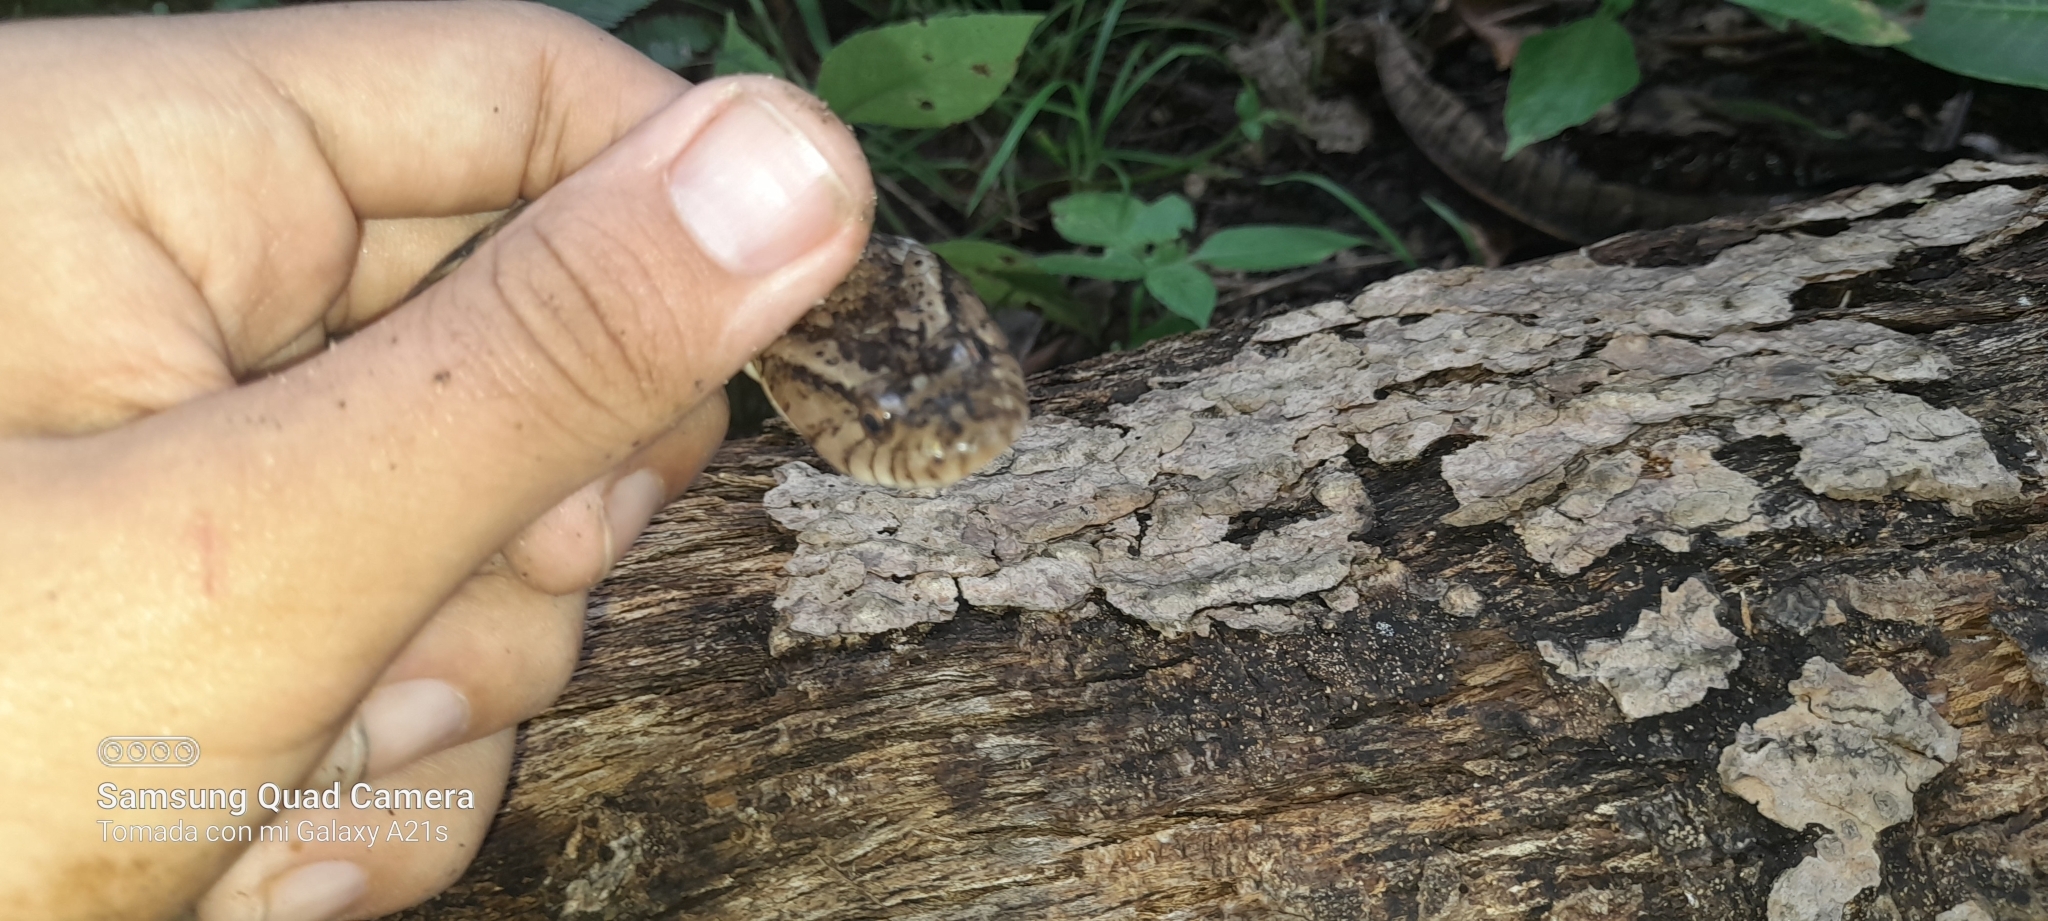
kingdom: Animalia
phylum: Chordata
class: Squamata
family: Colubridae
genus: Xenodon
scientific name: Xenodon rabdocephalus
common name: False fer-de-lance
